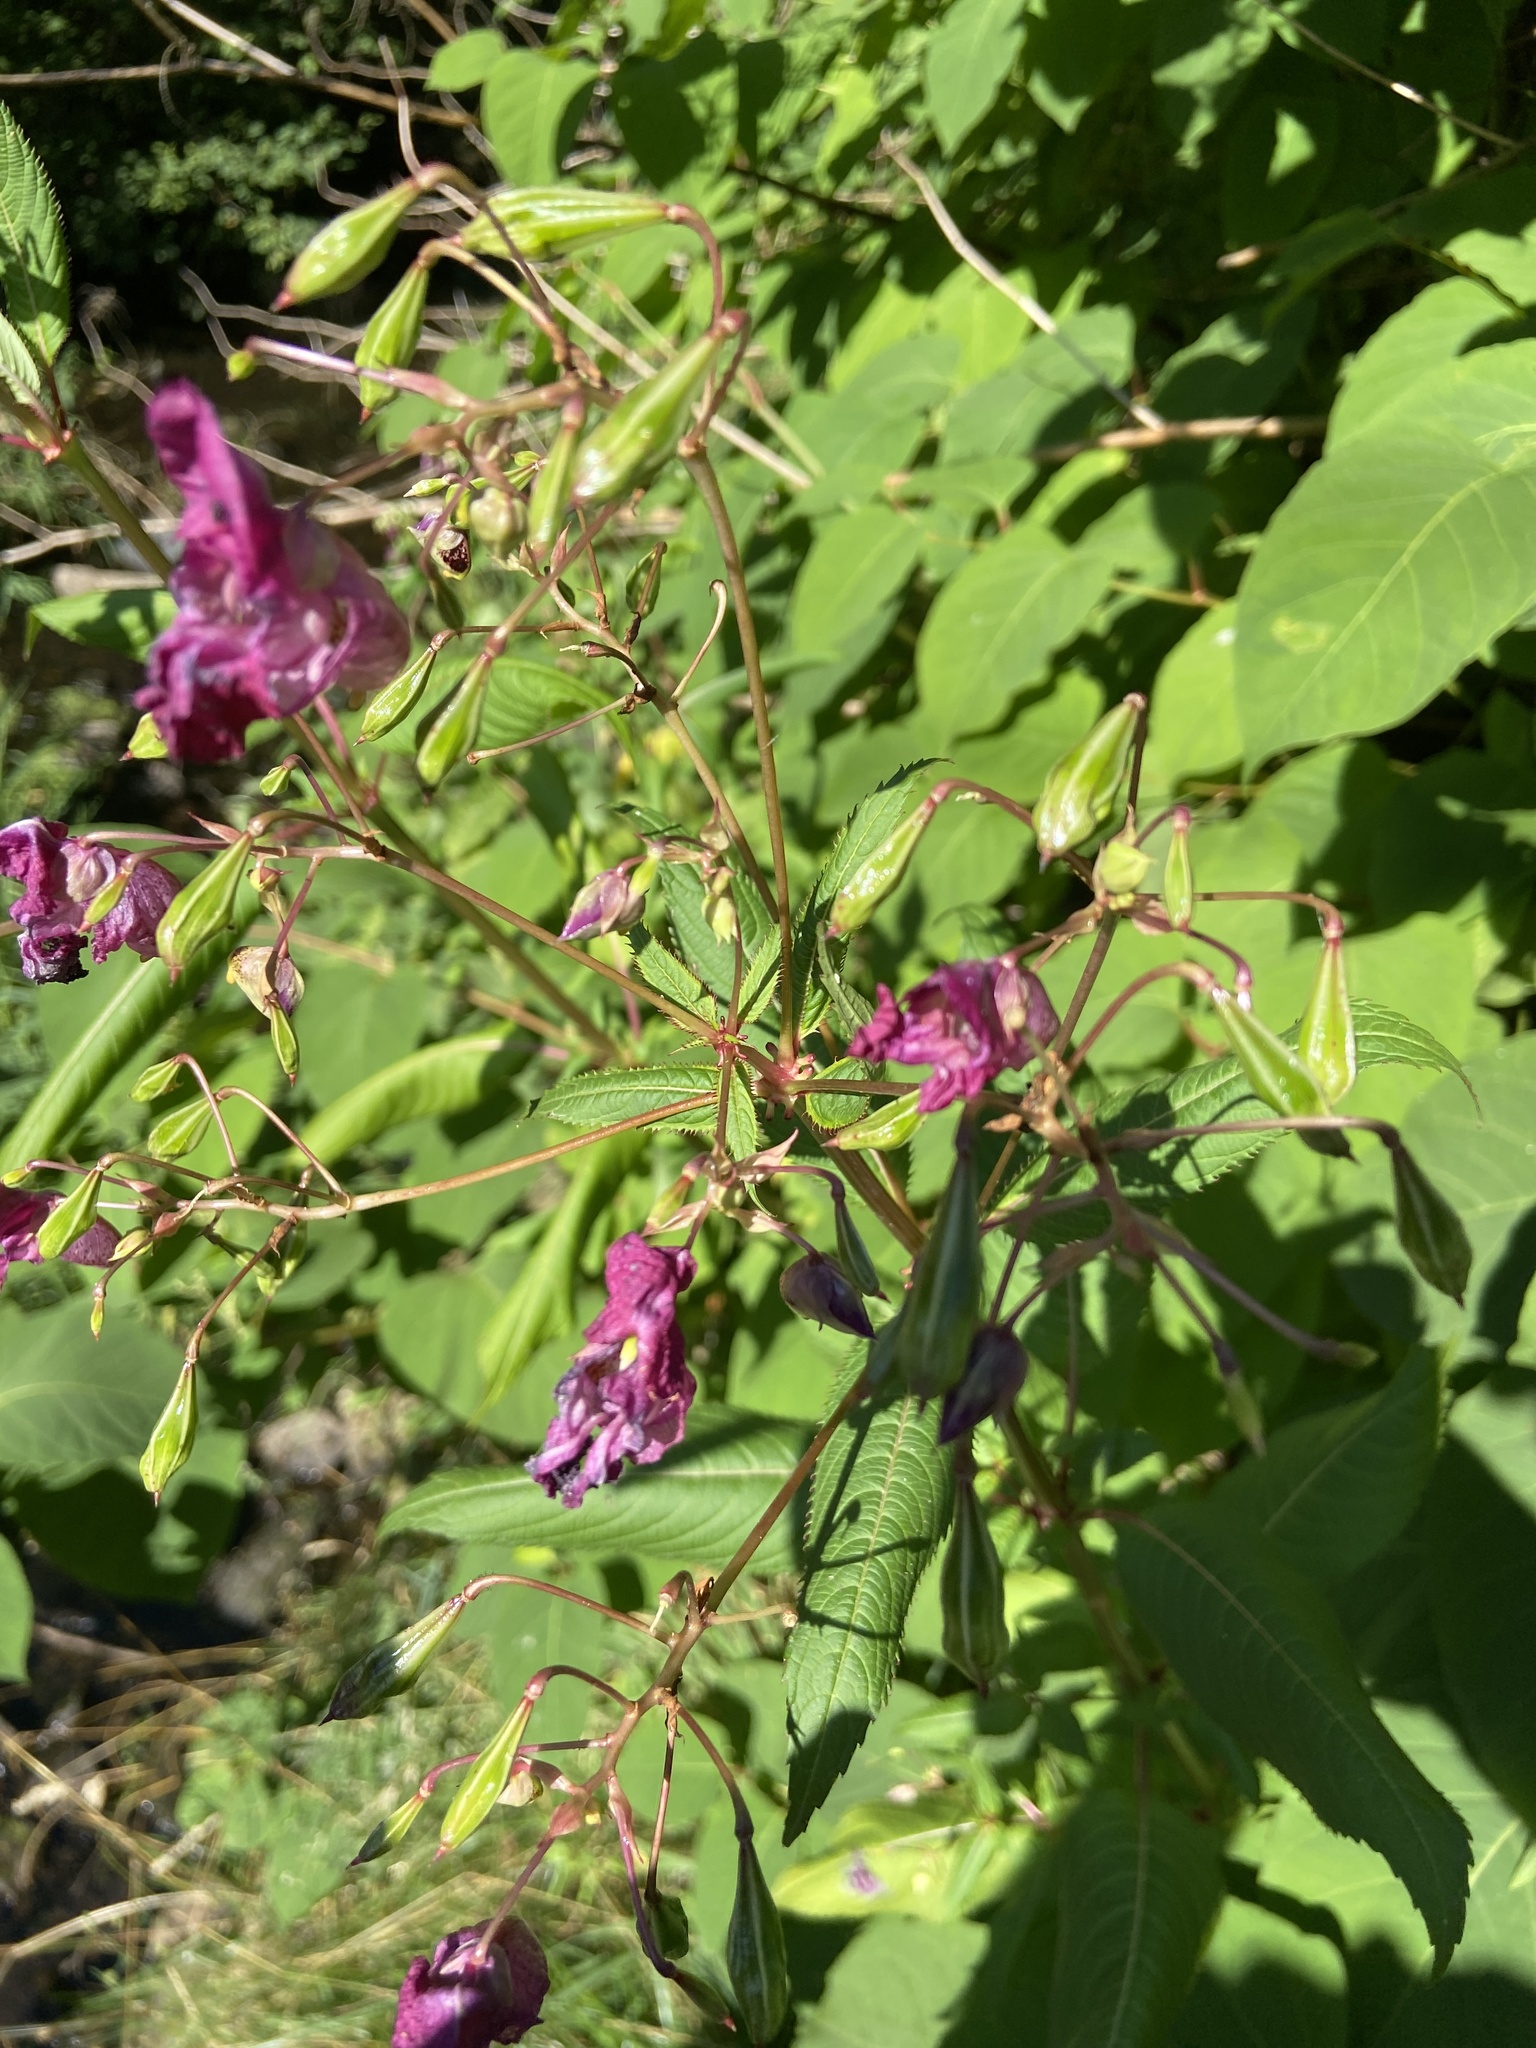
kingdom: Plantae
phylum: Tracheophyta
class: Magnoliopsida
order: Ericales
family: Balsaminaceae
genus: Impatiens
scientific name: Impatiens glandulifera
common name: Himalayan balsam
